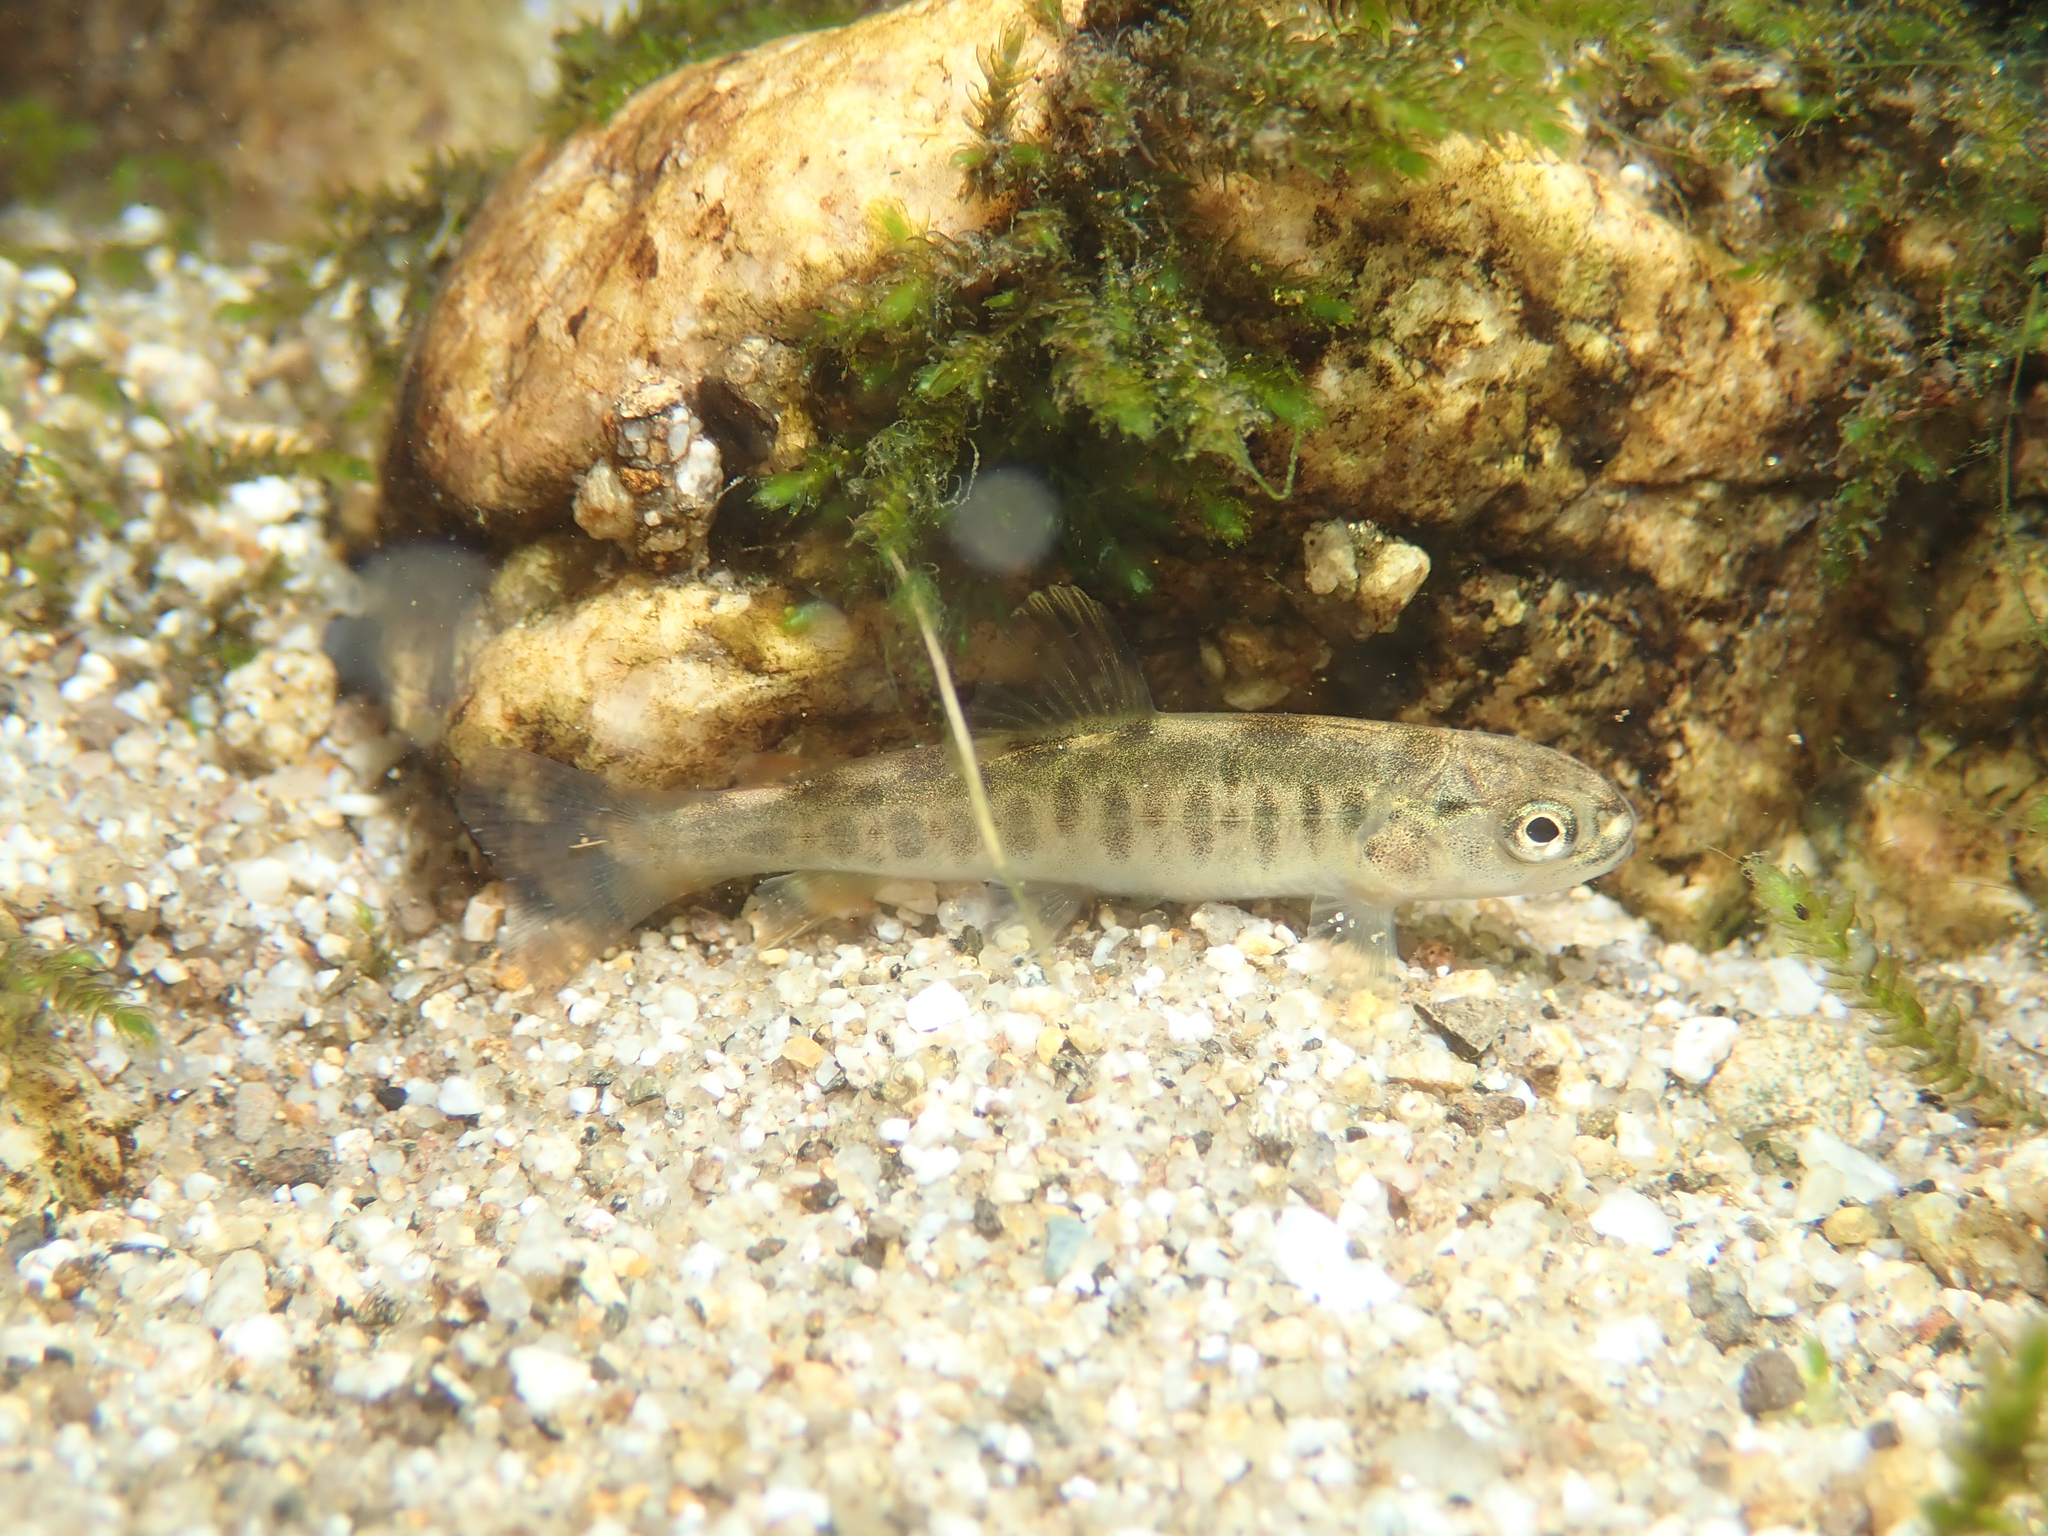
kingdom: Animalia
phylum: Chordata
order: Salmoniformes
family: Salmonidae
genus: Salmo
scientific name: Salmo trutta
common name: Brown trout
